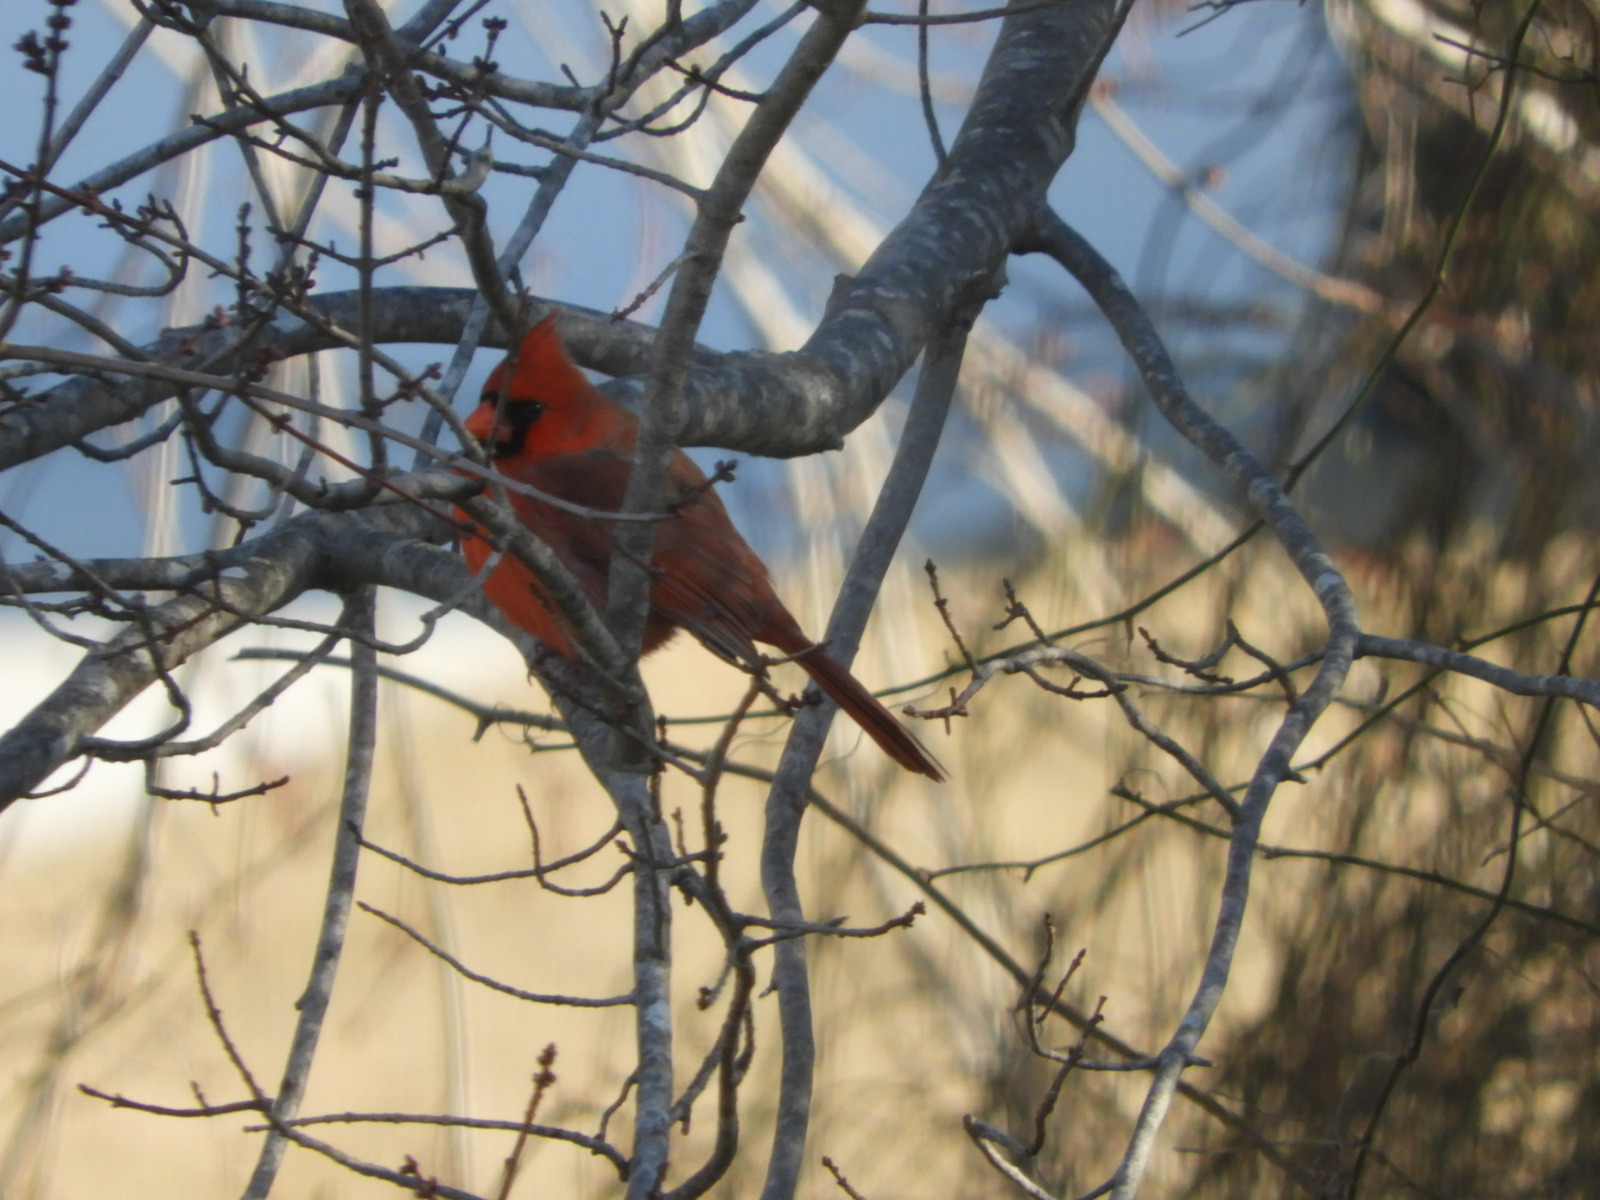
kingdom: Animalia
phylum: Chordata
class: Aves
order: Passeriformes
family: Cardinalidae
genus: Cardinalis
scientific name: Cardinalis cardinalis
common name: Northern cardinal
